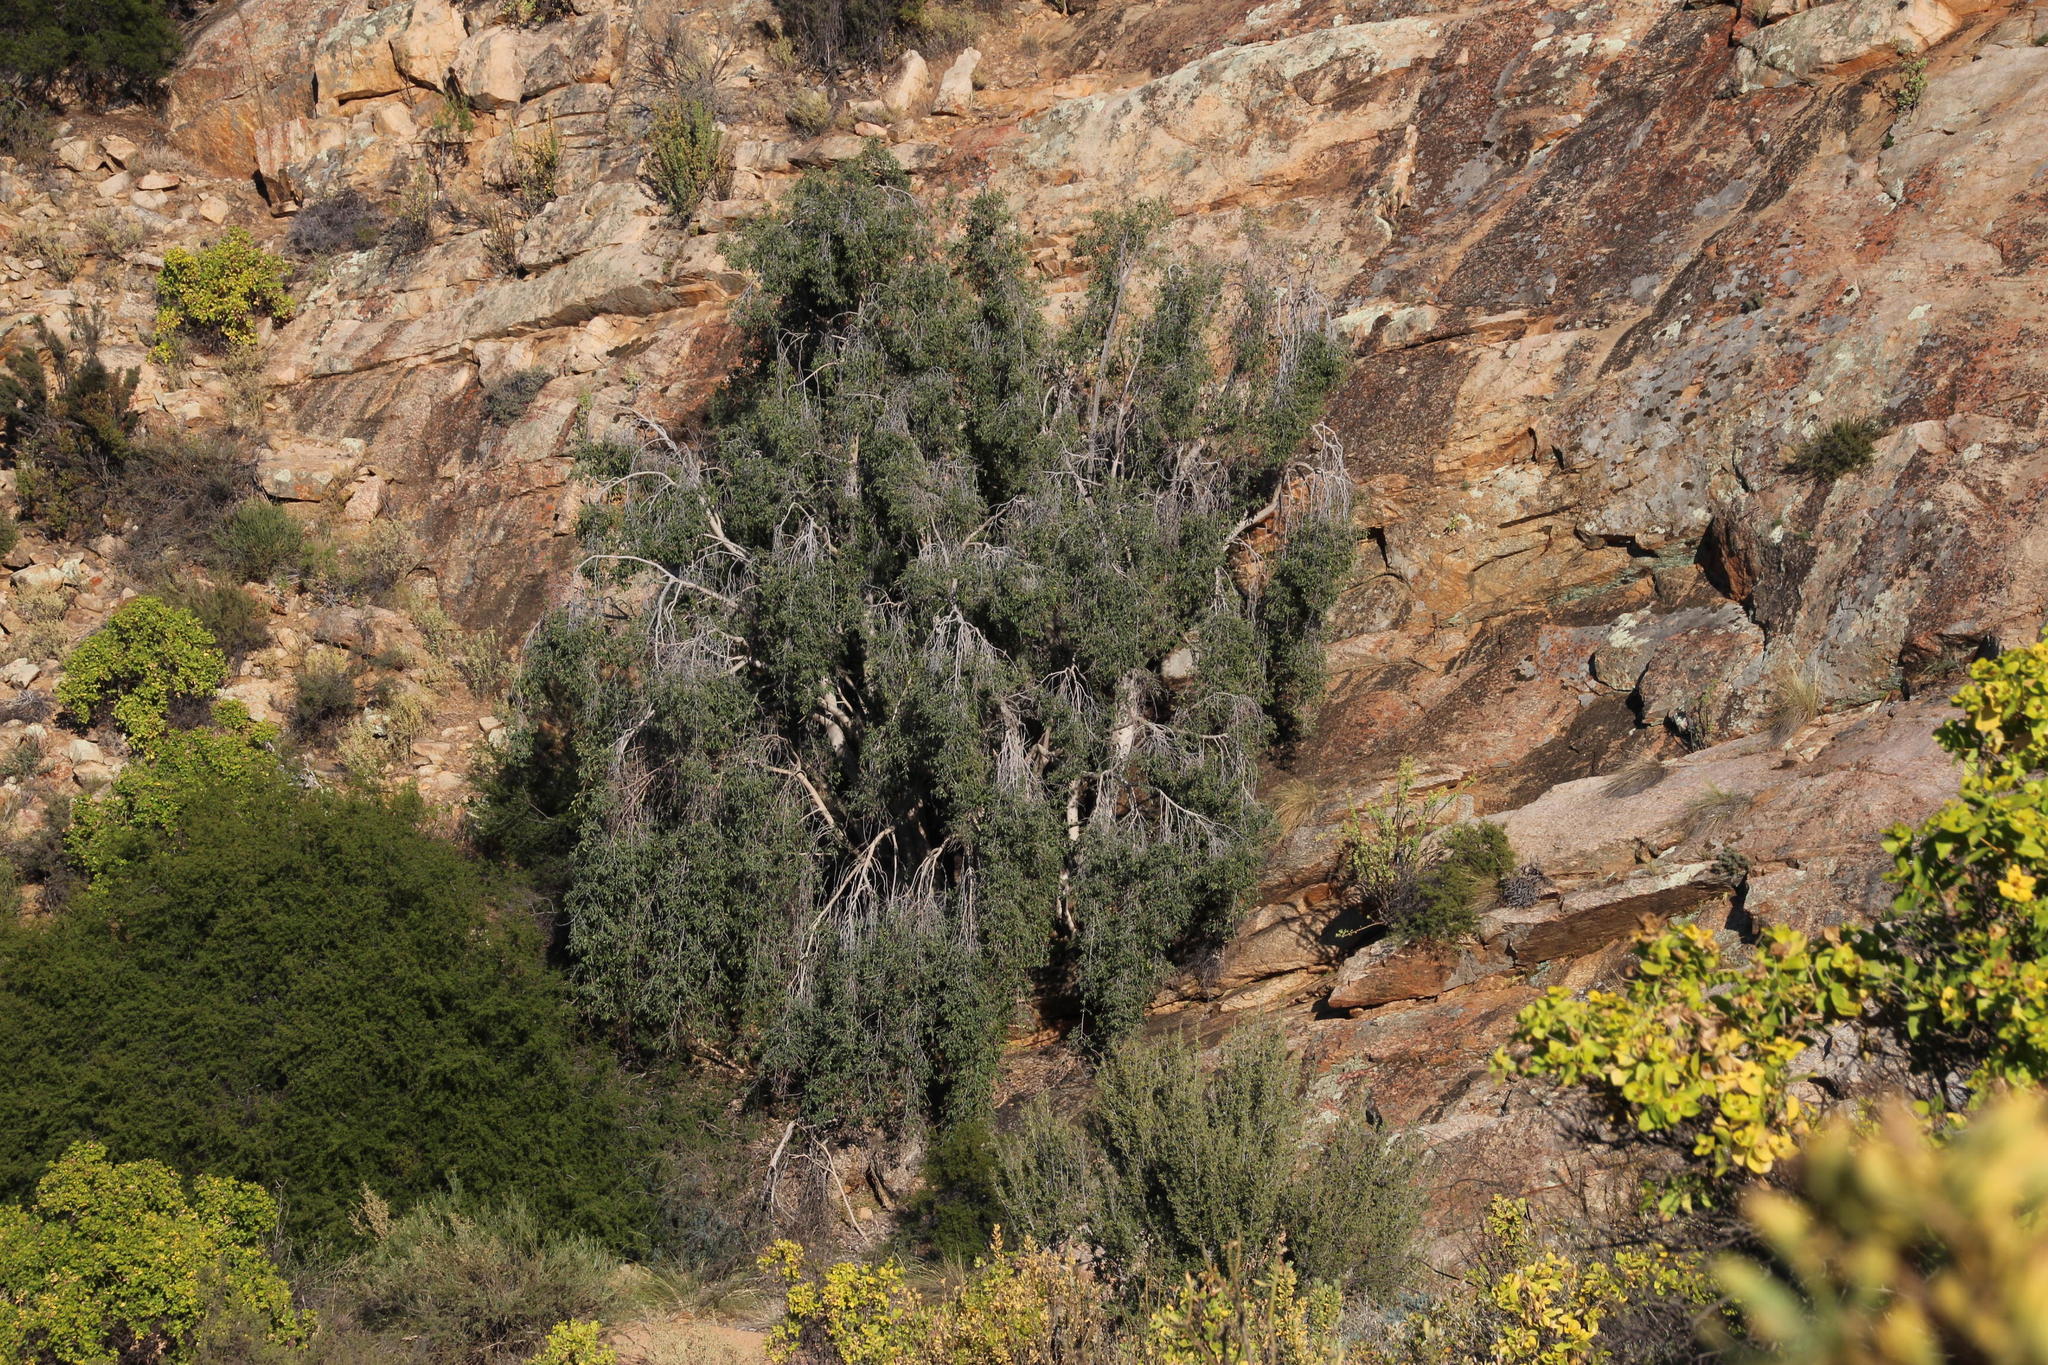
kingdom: Plantae
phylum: Tracheophyta
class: Magnoliopsida
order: Rosales
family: Moraceae
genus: Ficus
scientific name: Ficus cordata
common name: Namaqua rock fig
